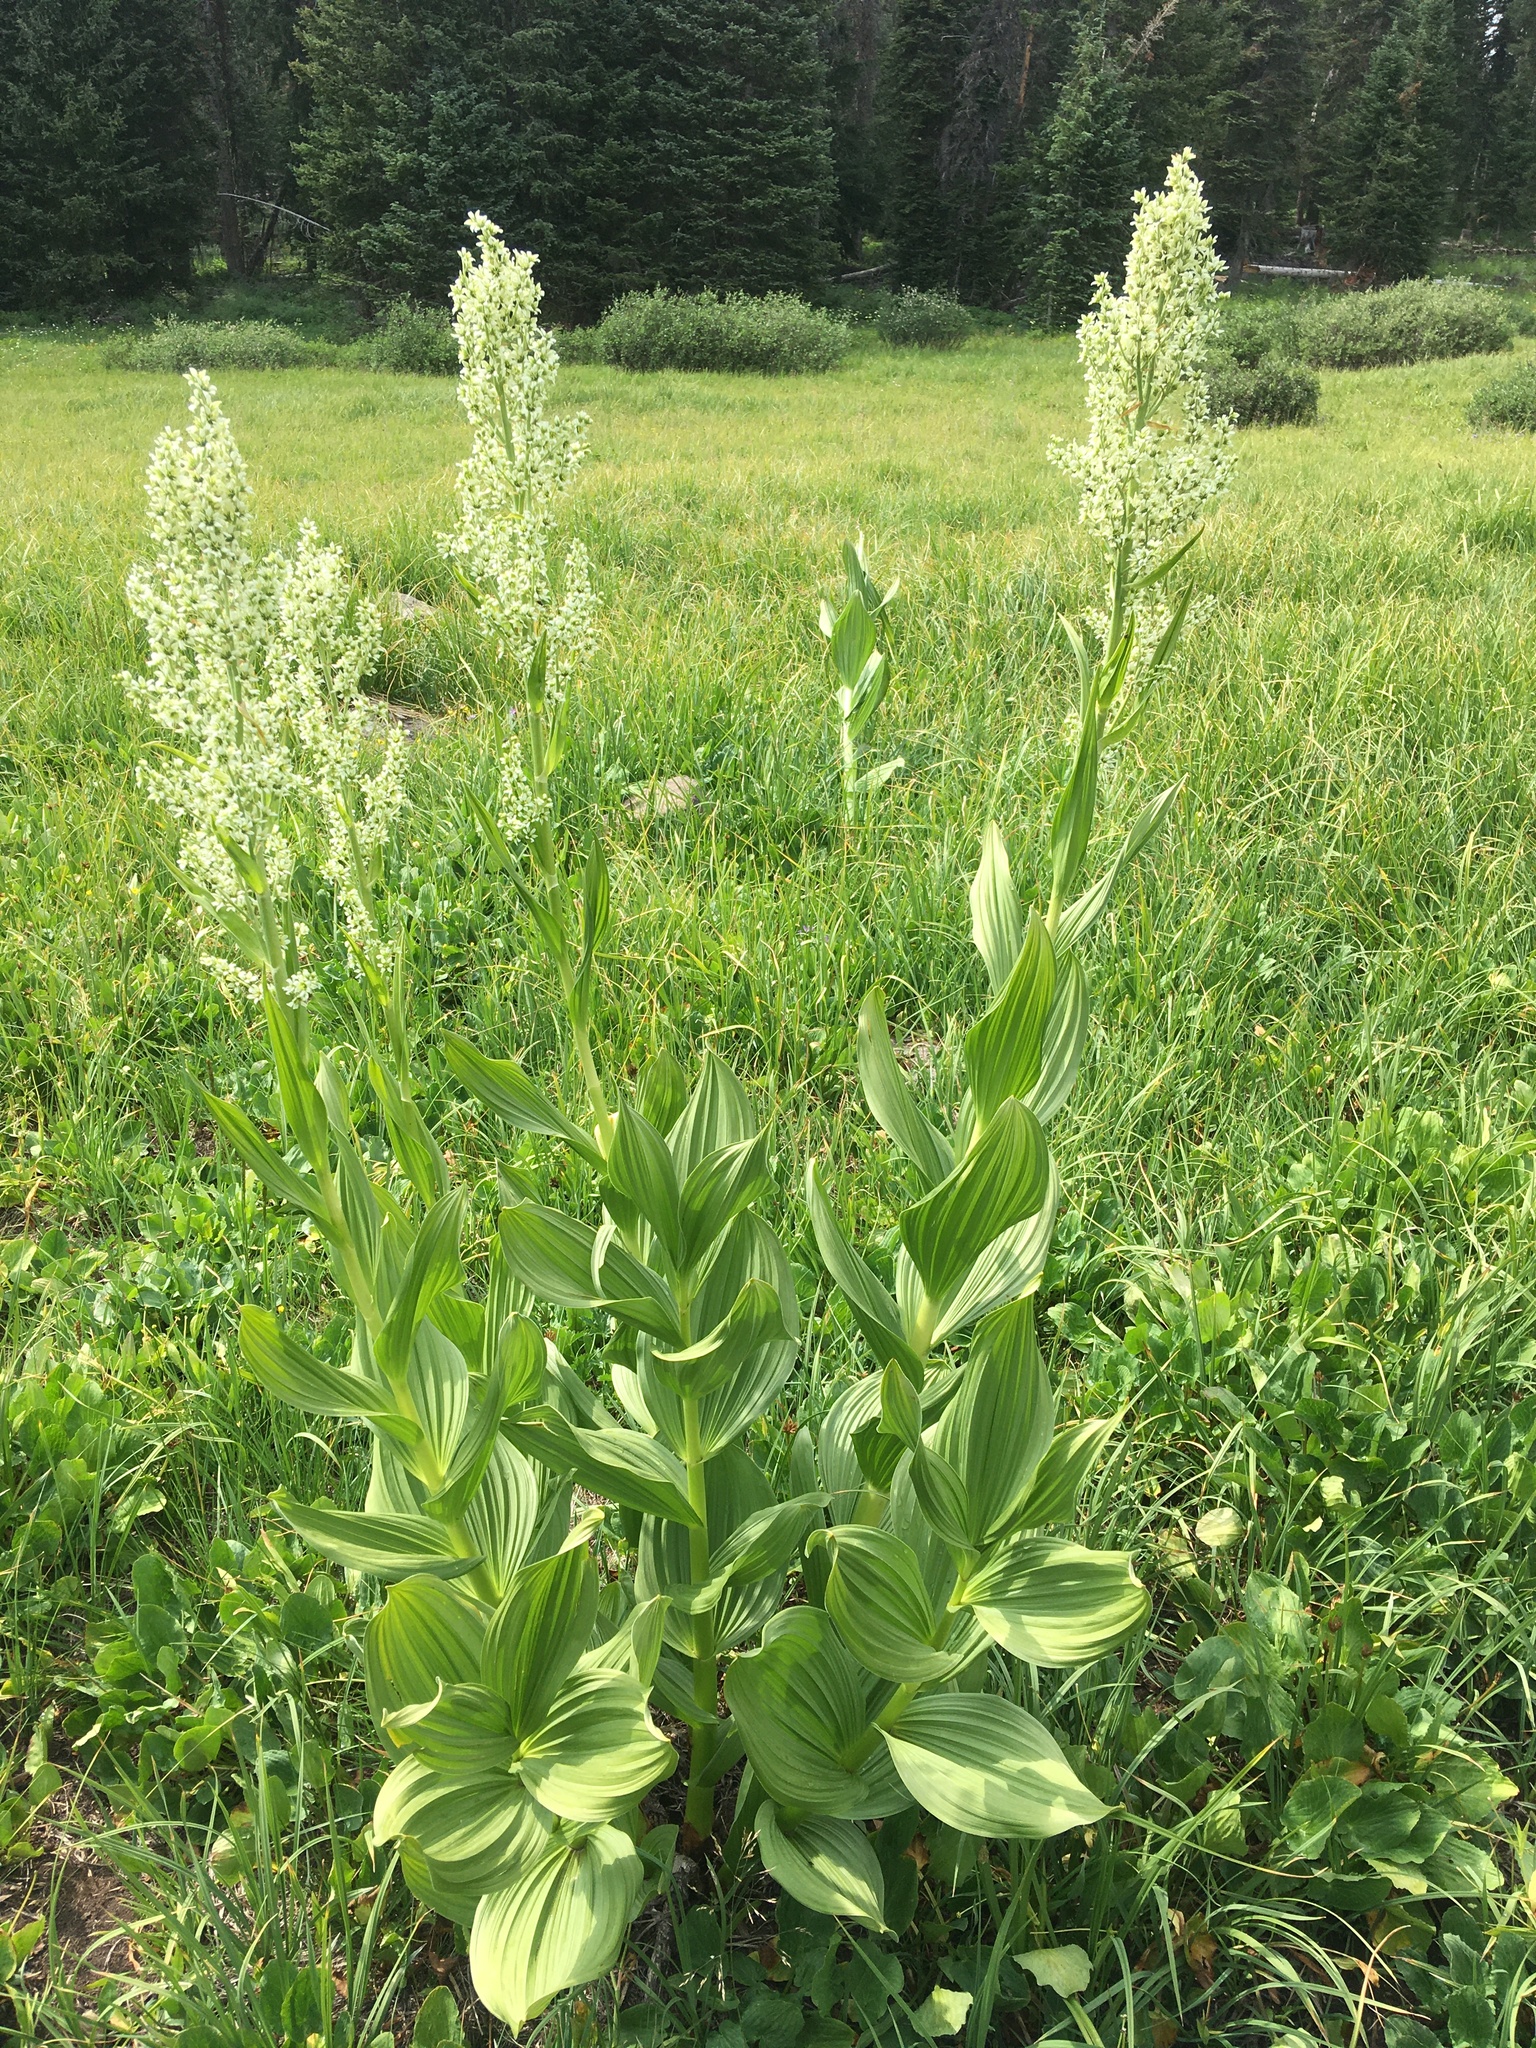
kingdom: Plantae
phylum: Tracheophyta
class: Liliopsida
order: Liliales
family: Melanthiaceae
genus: Veratrum
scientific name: Veratrum californicum
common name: California veratrum
